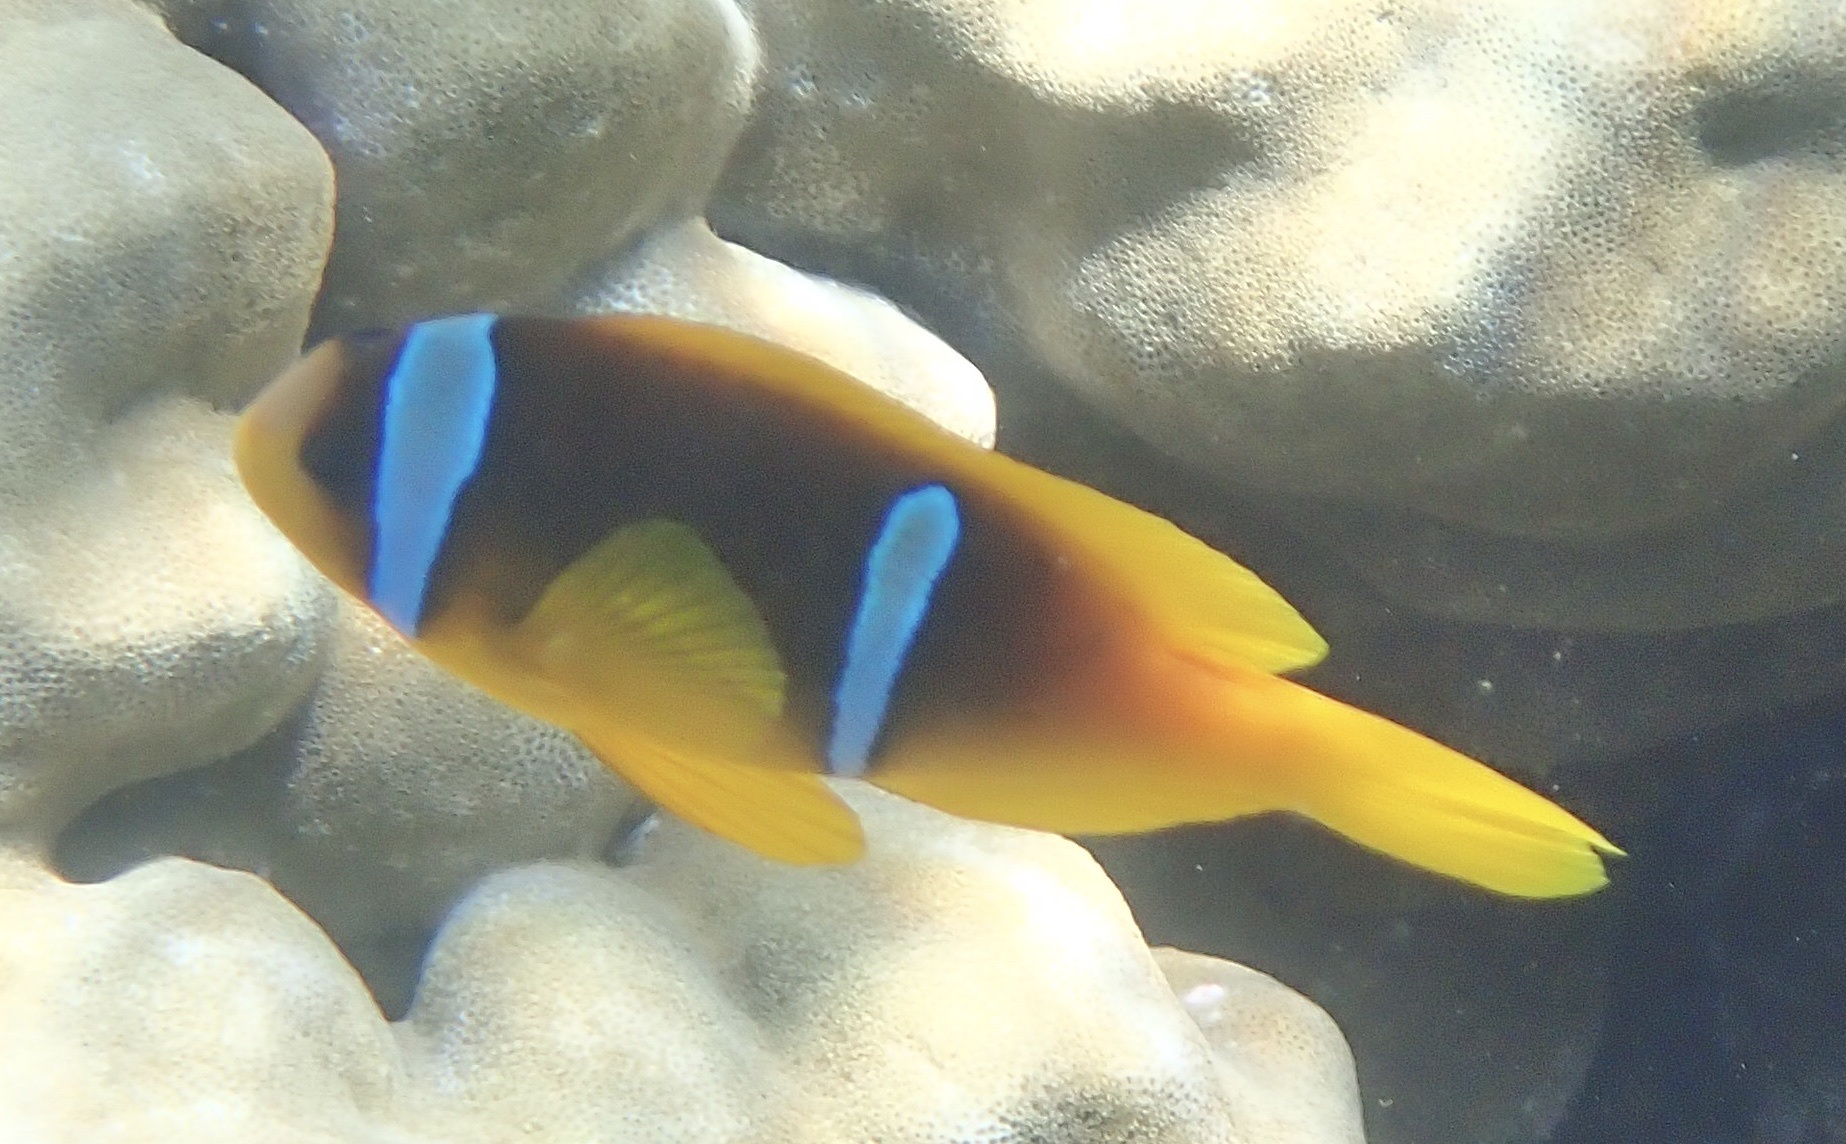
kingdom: Animalia
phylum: Chordata
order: Perciformes
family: Pomacentridae
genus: Amphiprion
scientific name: Amphiprion bicinctus
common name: Two-banded anemonefish
